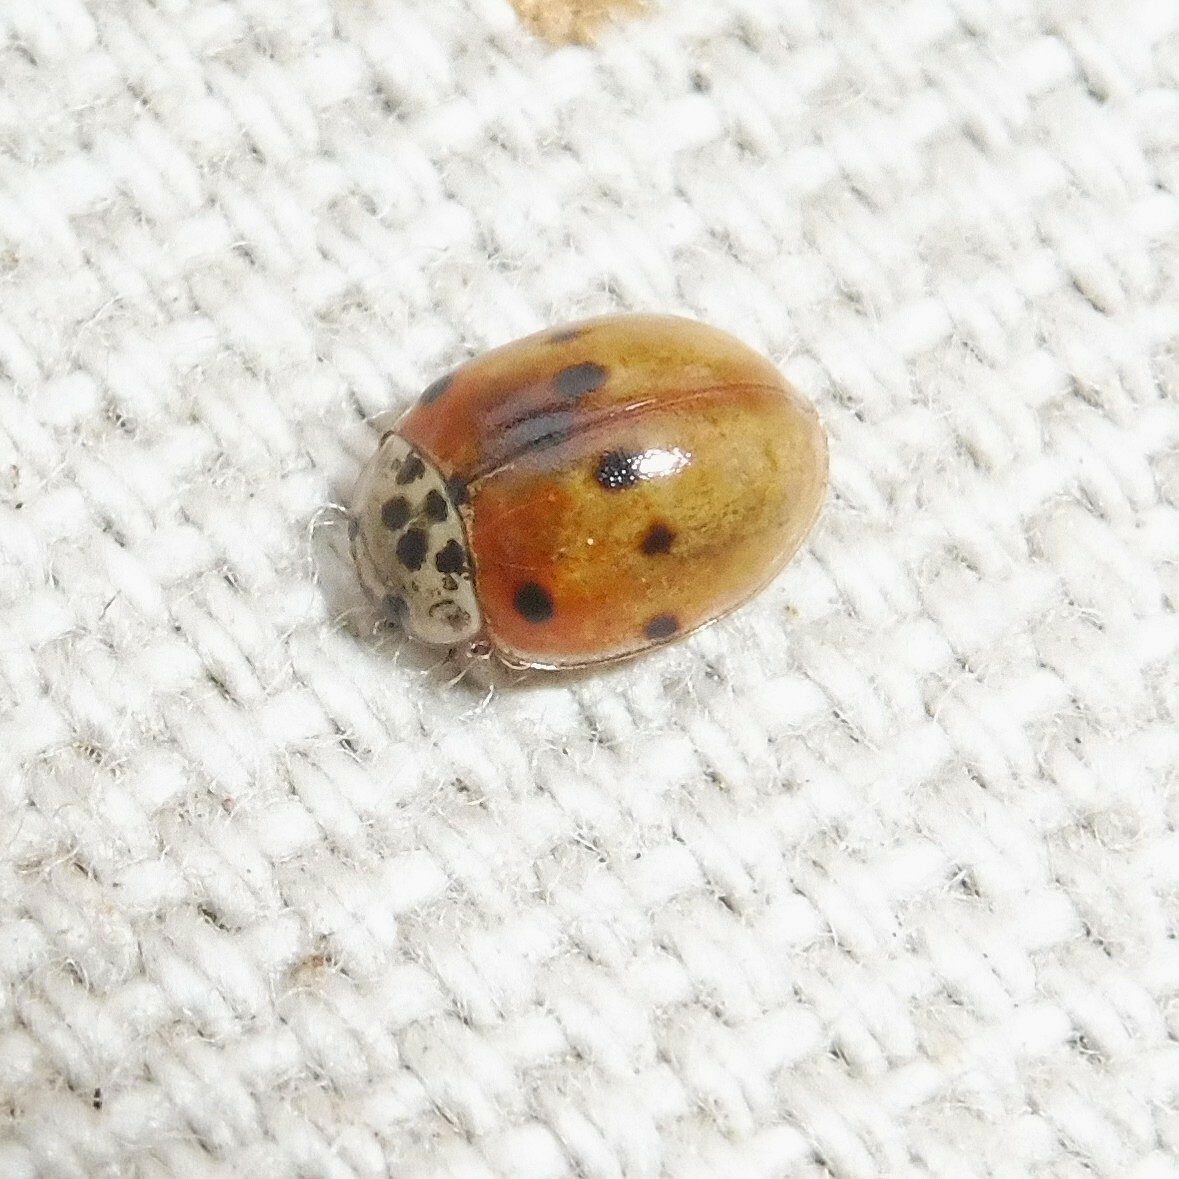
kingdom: Animalia
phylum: Arthropoda
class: Insecta
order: Coleoptera
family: Coccinellidae
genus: Adalia
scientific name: Adalia decempunctata
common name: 10-spot ladybird
